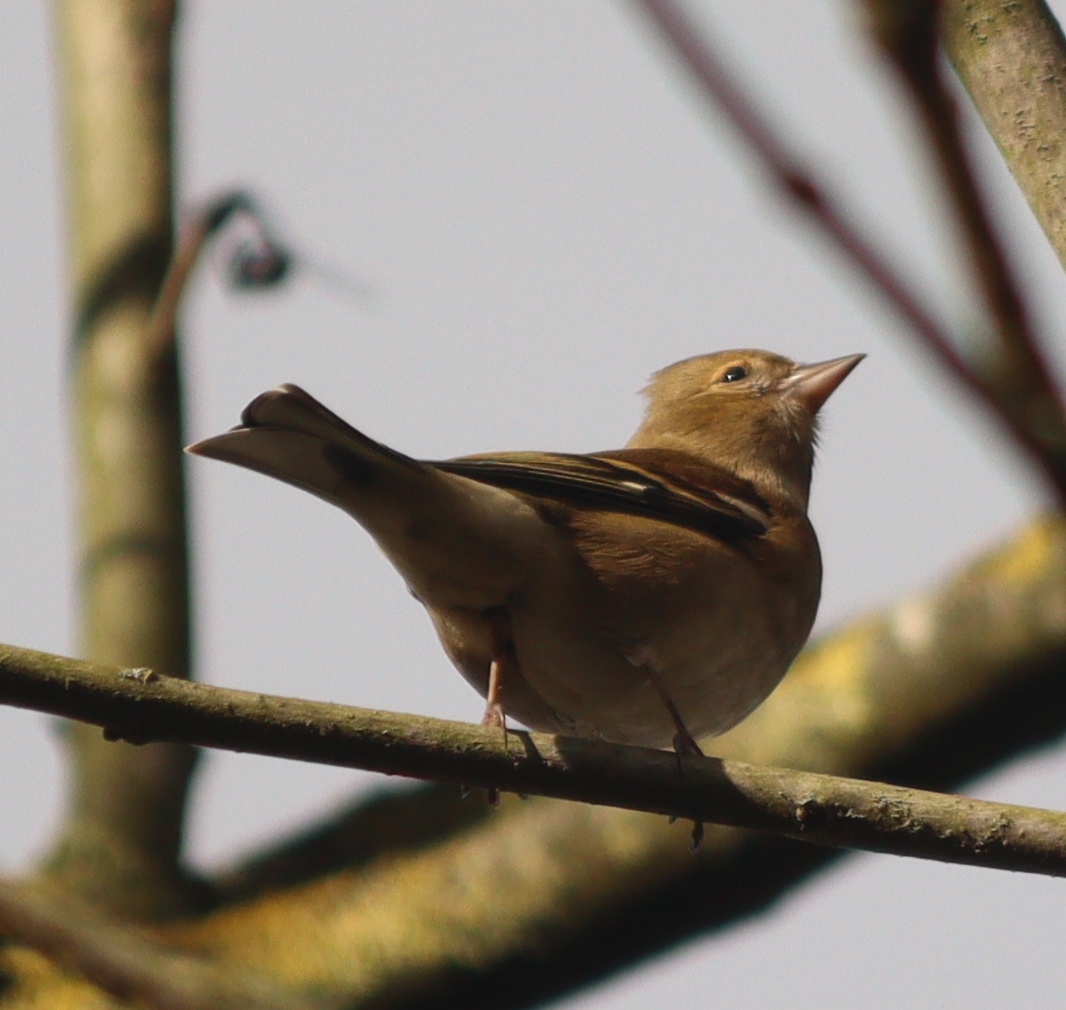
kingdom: Animalia
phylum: Chordata
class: Aves
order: Passeriformes
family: Fringillidae
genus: Fringilla
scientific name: Fringilla coelebs
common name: Common chaffinch
